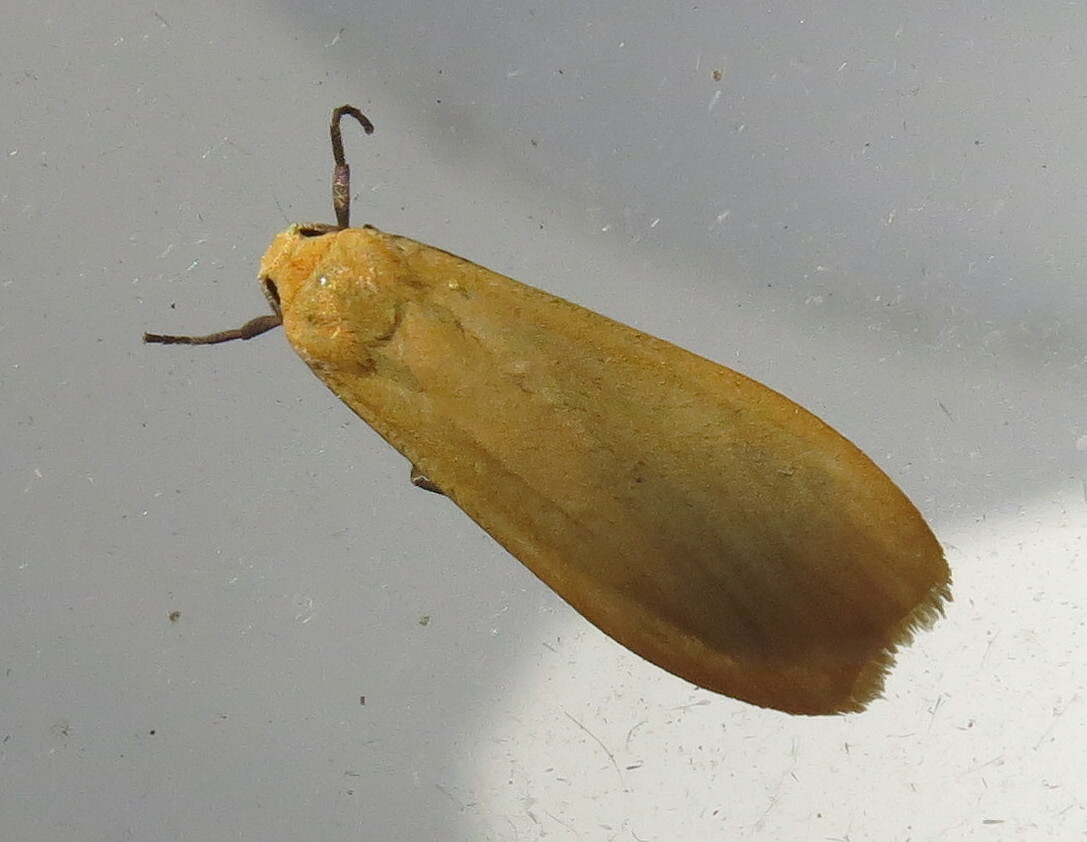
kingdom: Animalia
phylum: Arthropoda
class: Insecta
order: Lepidoptera
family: Erebidae
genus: Wittia
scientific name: Wittia sororcula
